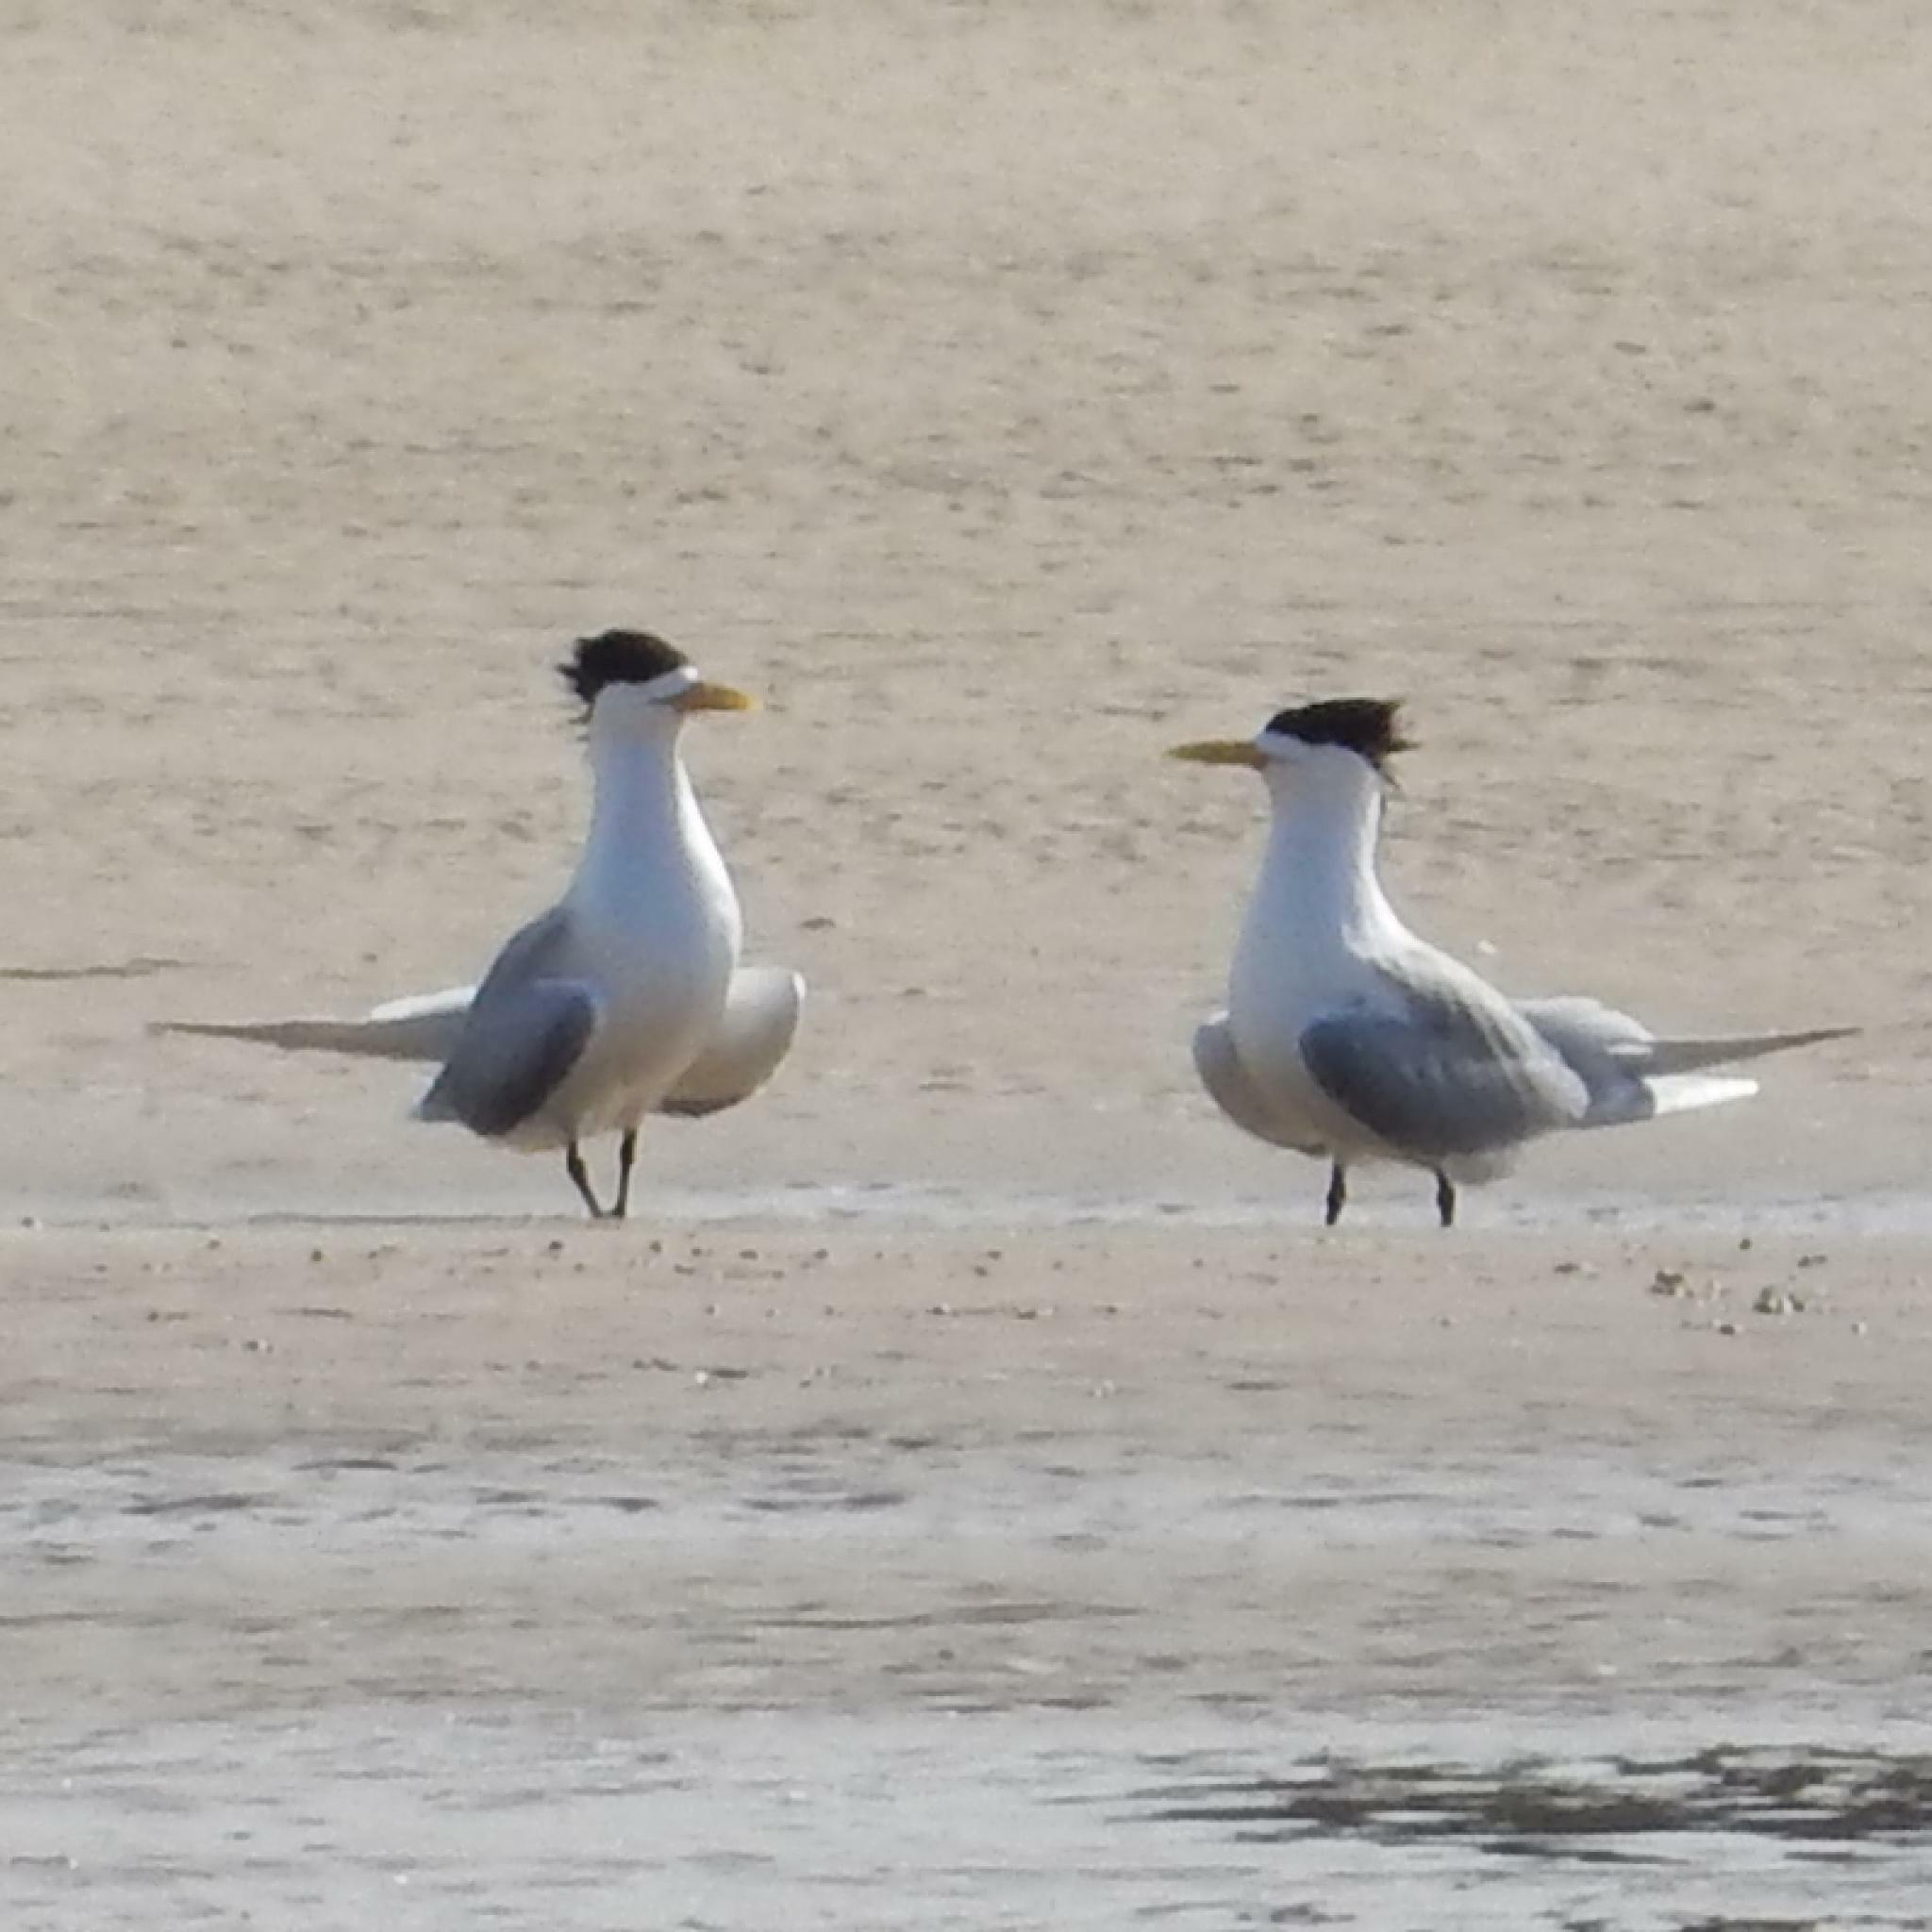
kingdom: Animalia
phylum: Chordata
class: Aves
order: Charadriiformes
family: Laridae
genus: Thalasseus
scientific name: Thalasseus bergii
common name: Greater crested tern
